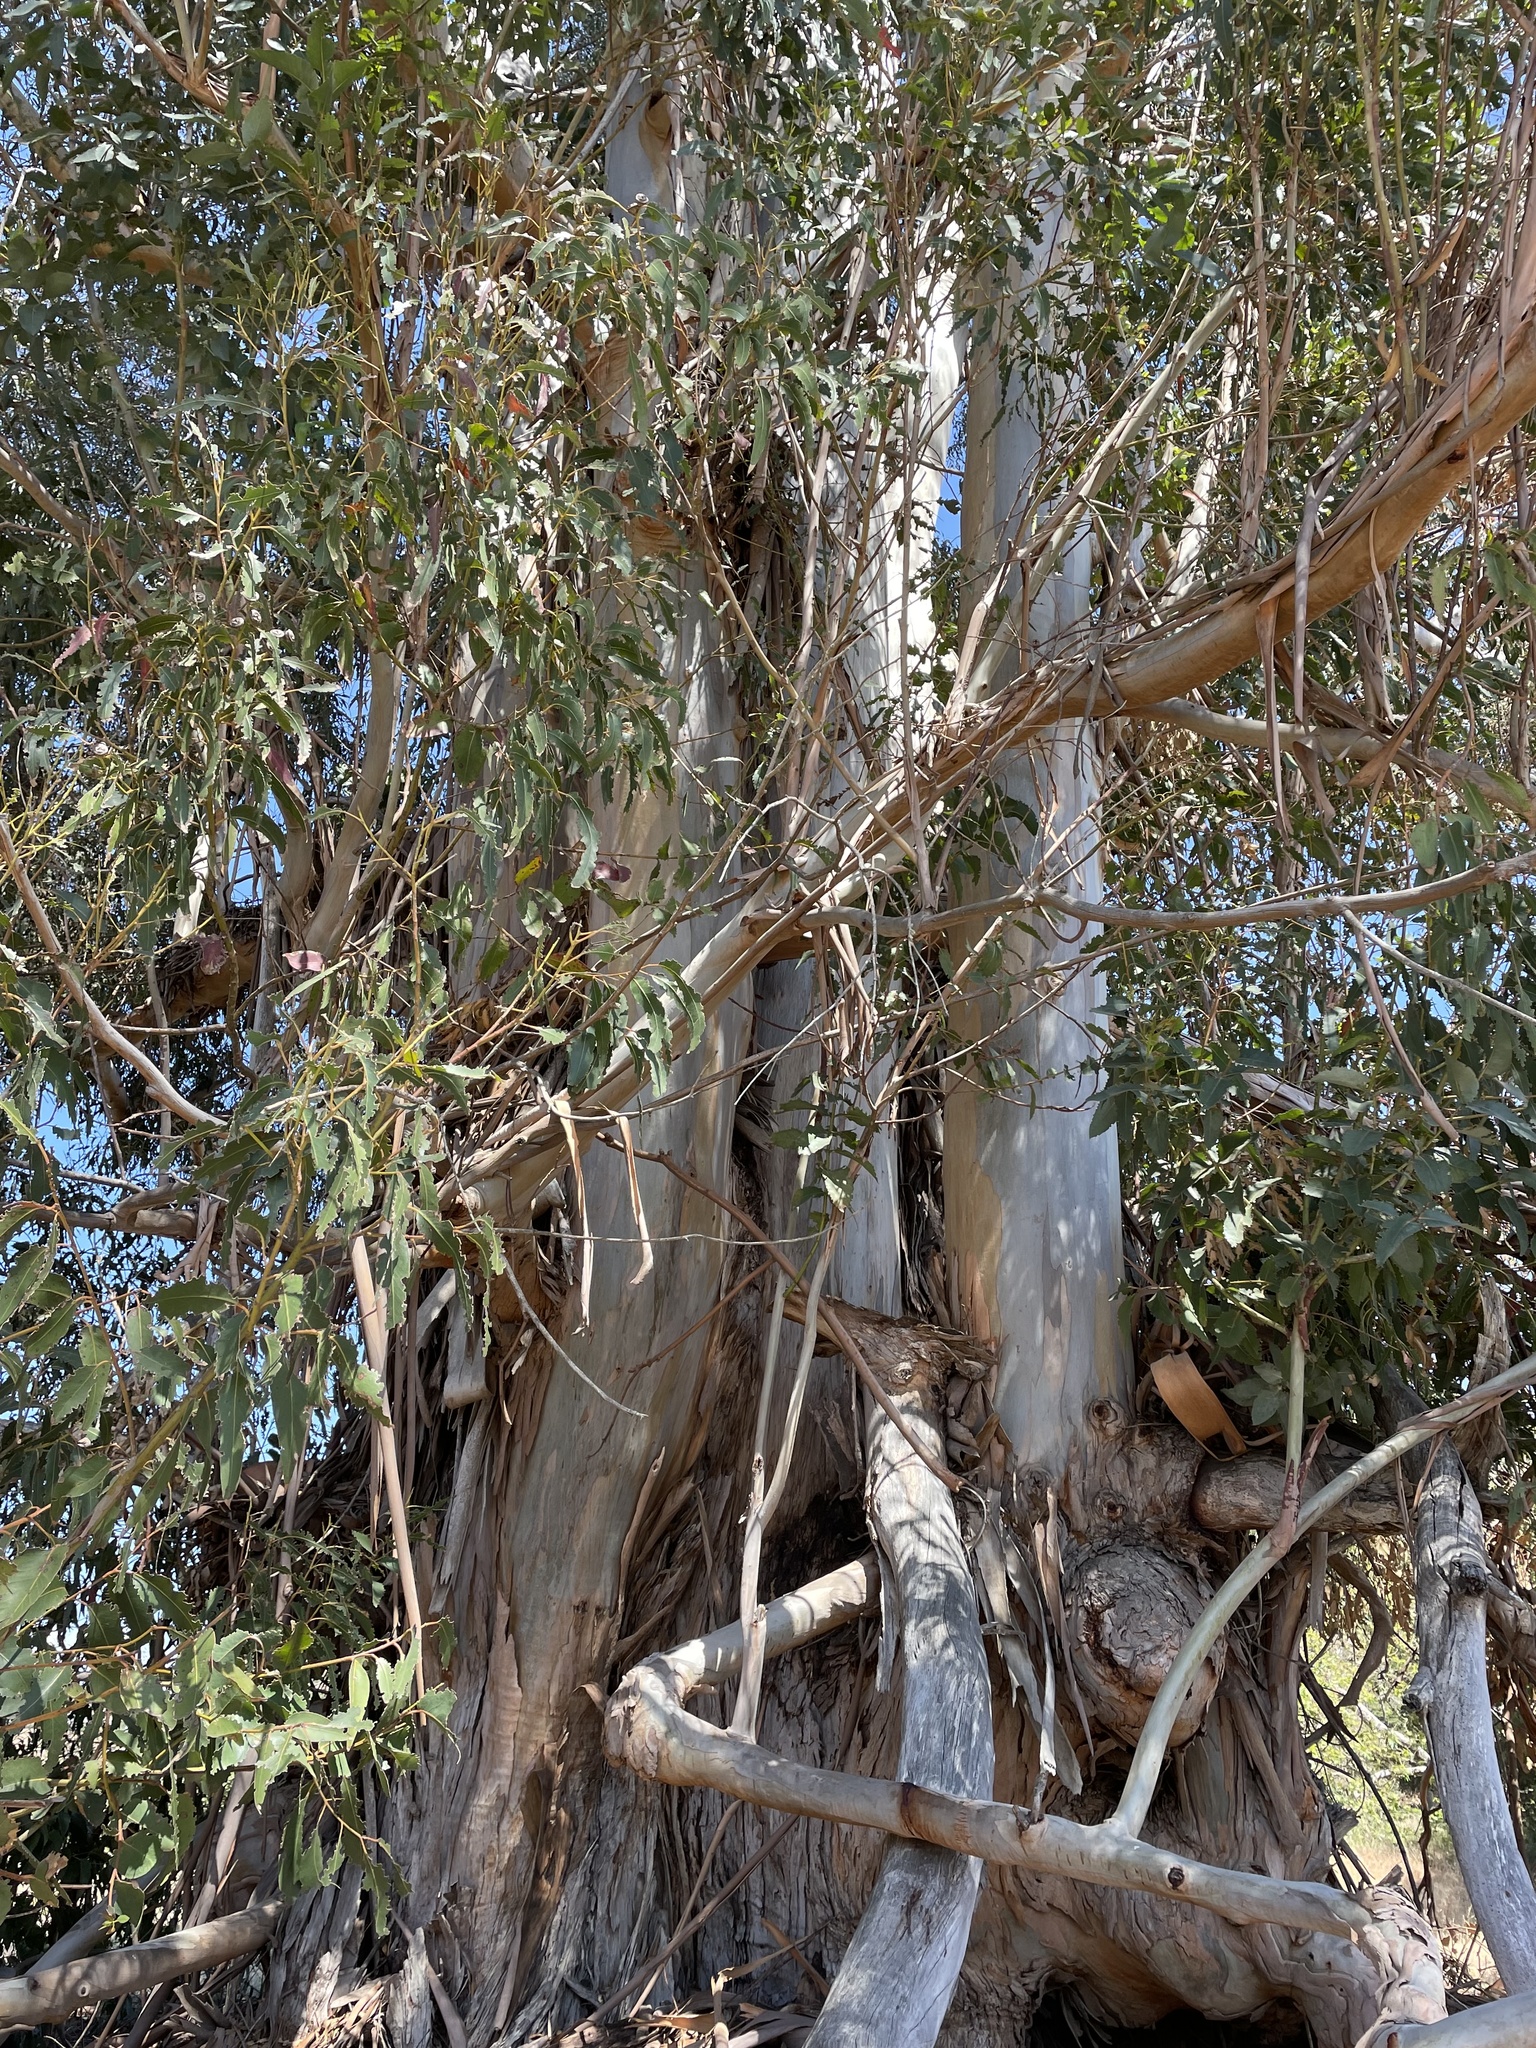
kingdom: Plantae
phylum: Tracheophyta
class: Magnoliopsida
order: Myrtales
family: Myrtaceae
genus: Eucalyptus
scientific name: Eucalyptus globulus
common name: Southern blue-gum
